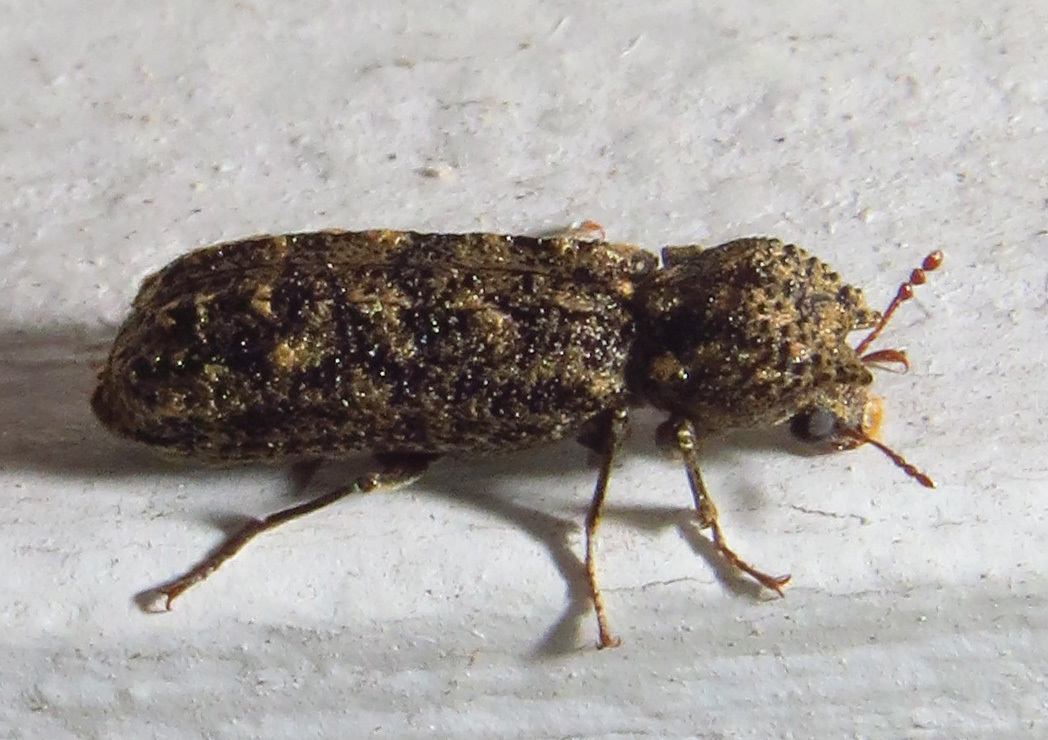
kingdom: Animalia
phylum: Arthropoda
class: Insecta
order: Coleoptera
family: Bostrichidae
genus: Lichenophanes
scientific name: Lichenophanes bicornis
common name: Two-horned powder-post beetle
